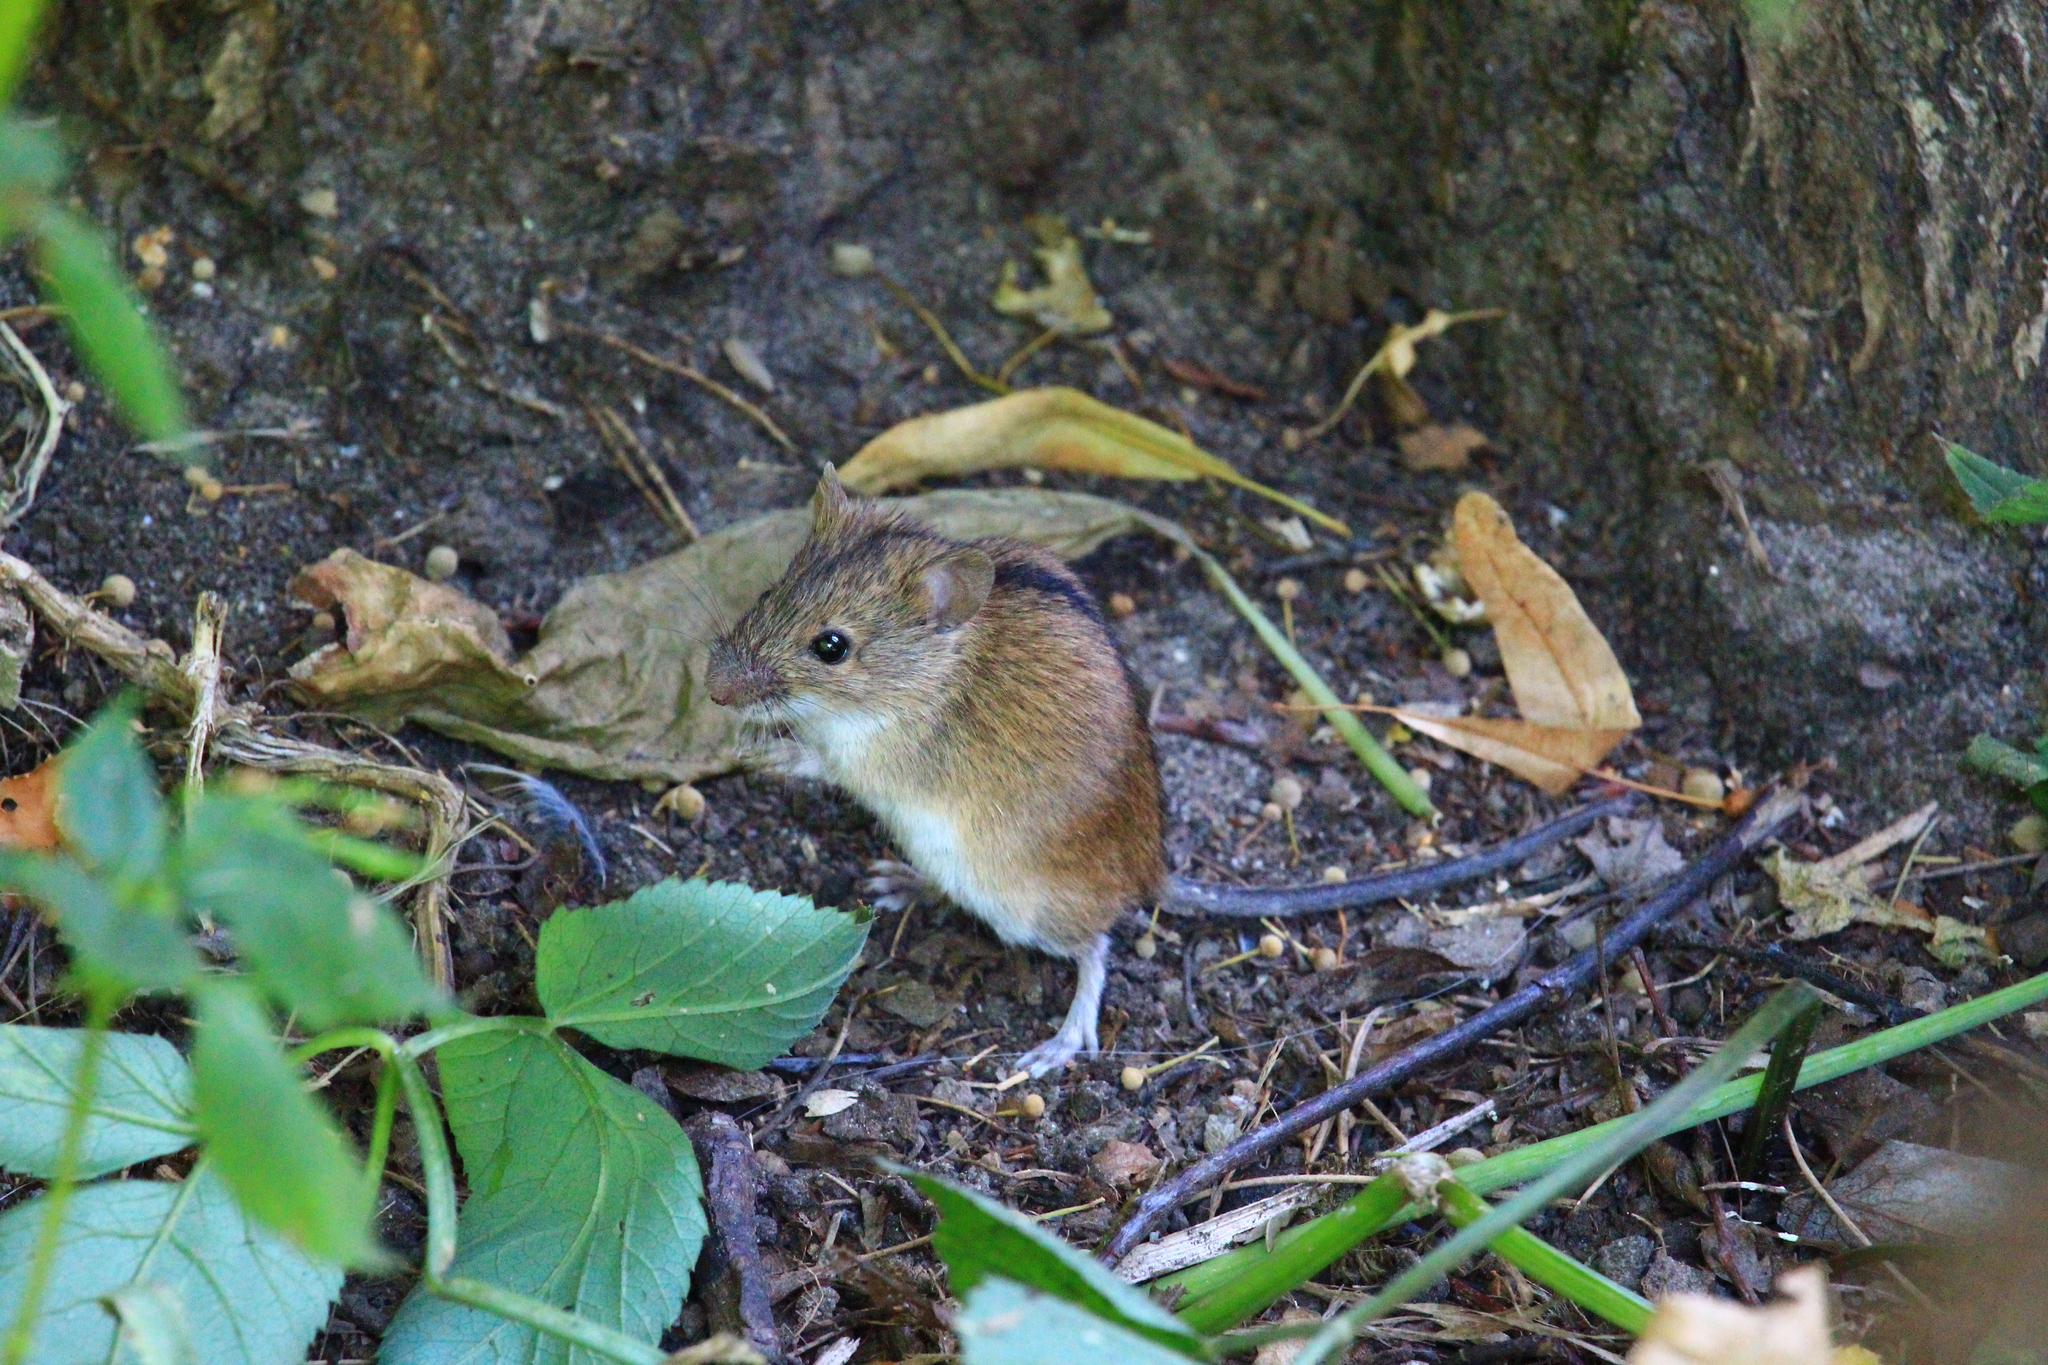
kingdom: Animalia
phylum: Chordata
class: Mammalia
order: Rodentia
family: Muridae
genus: Apodemus
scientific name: Apodemus agrarius
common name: Striped field mouse
